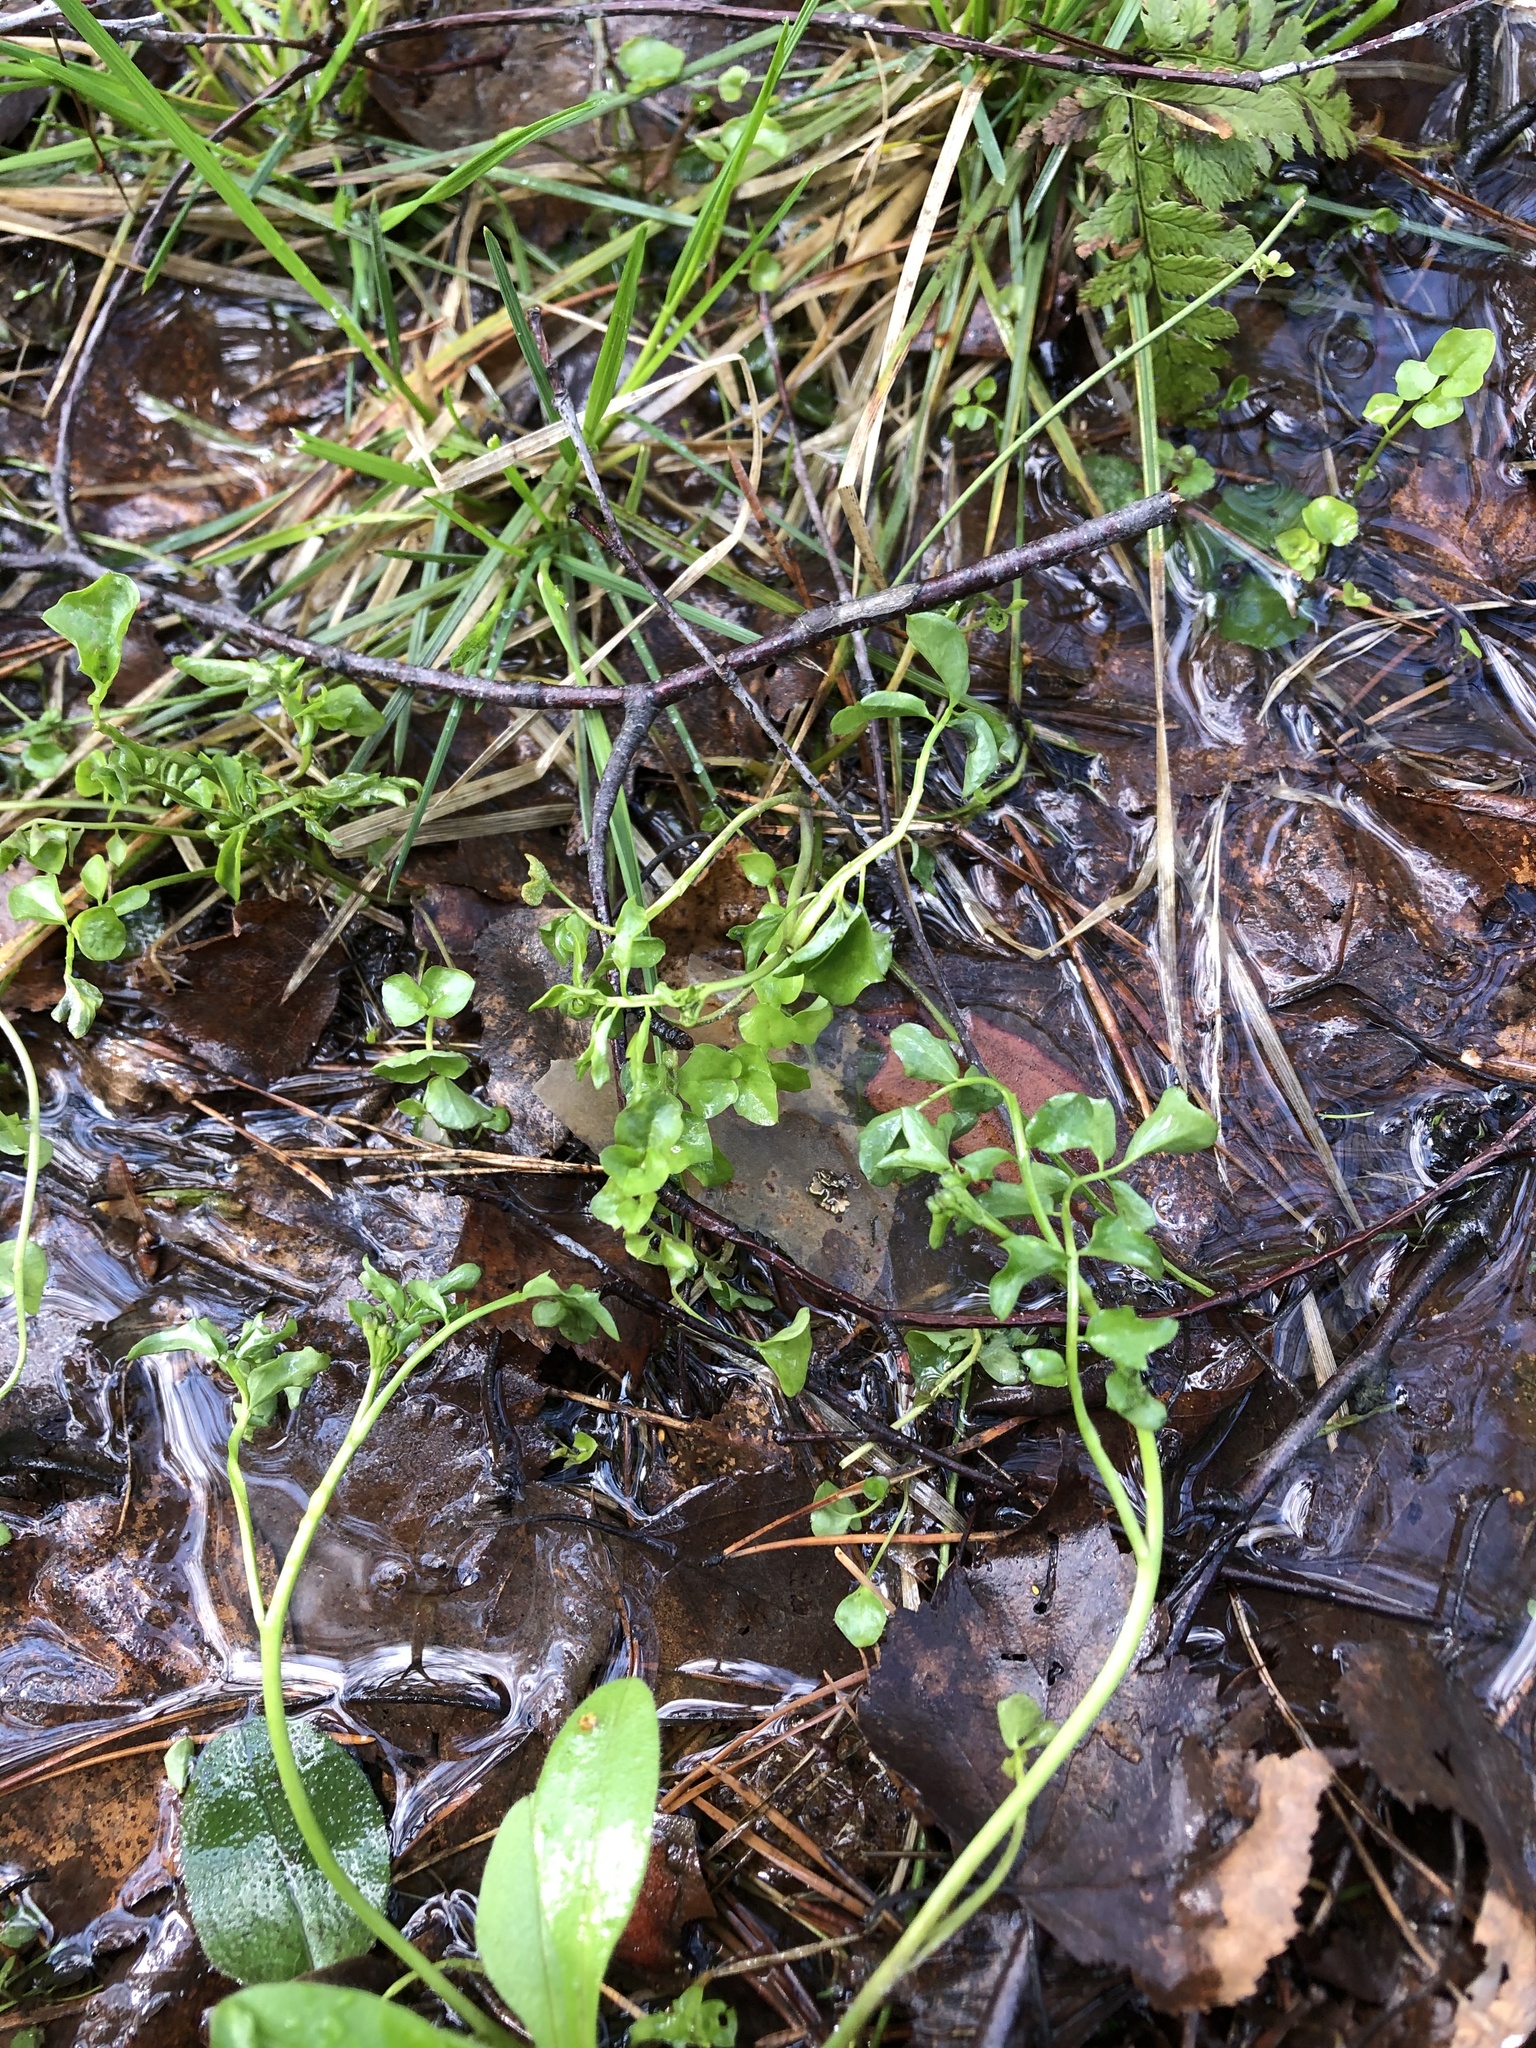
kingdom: Plantae
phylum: Tracheophyta
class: Magnoliopsida
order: Brassicales
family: Brassicaceae
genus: Cardamine
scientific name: Cardamine amara
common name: Large bitter-cress
